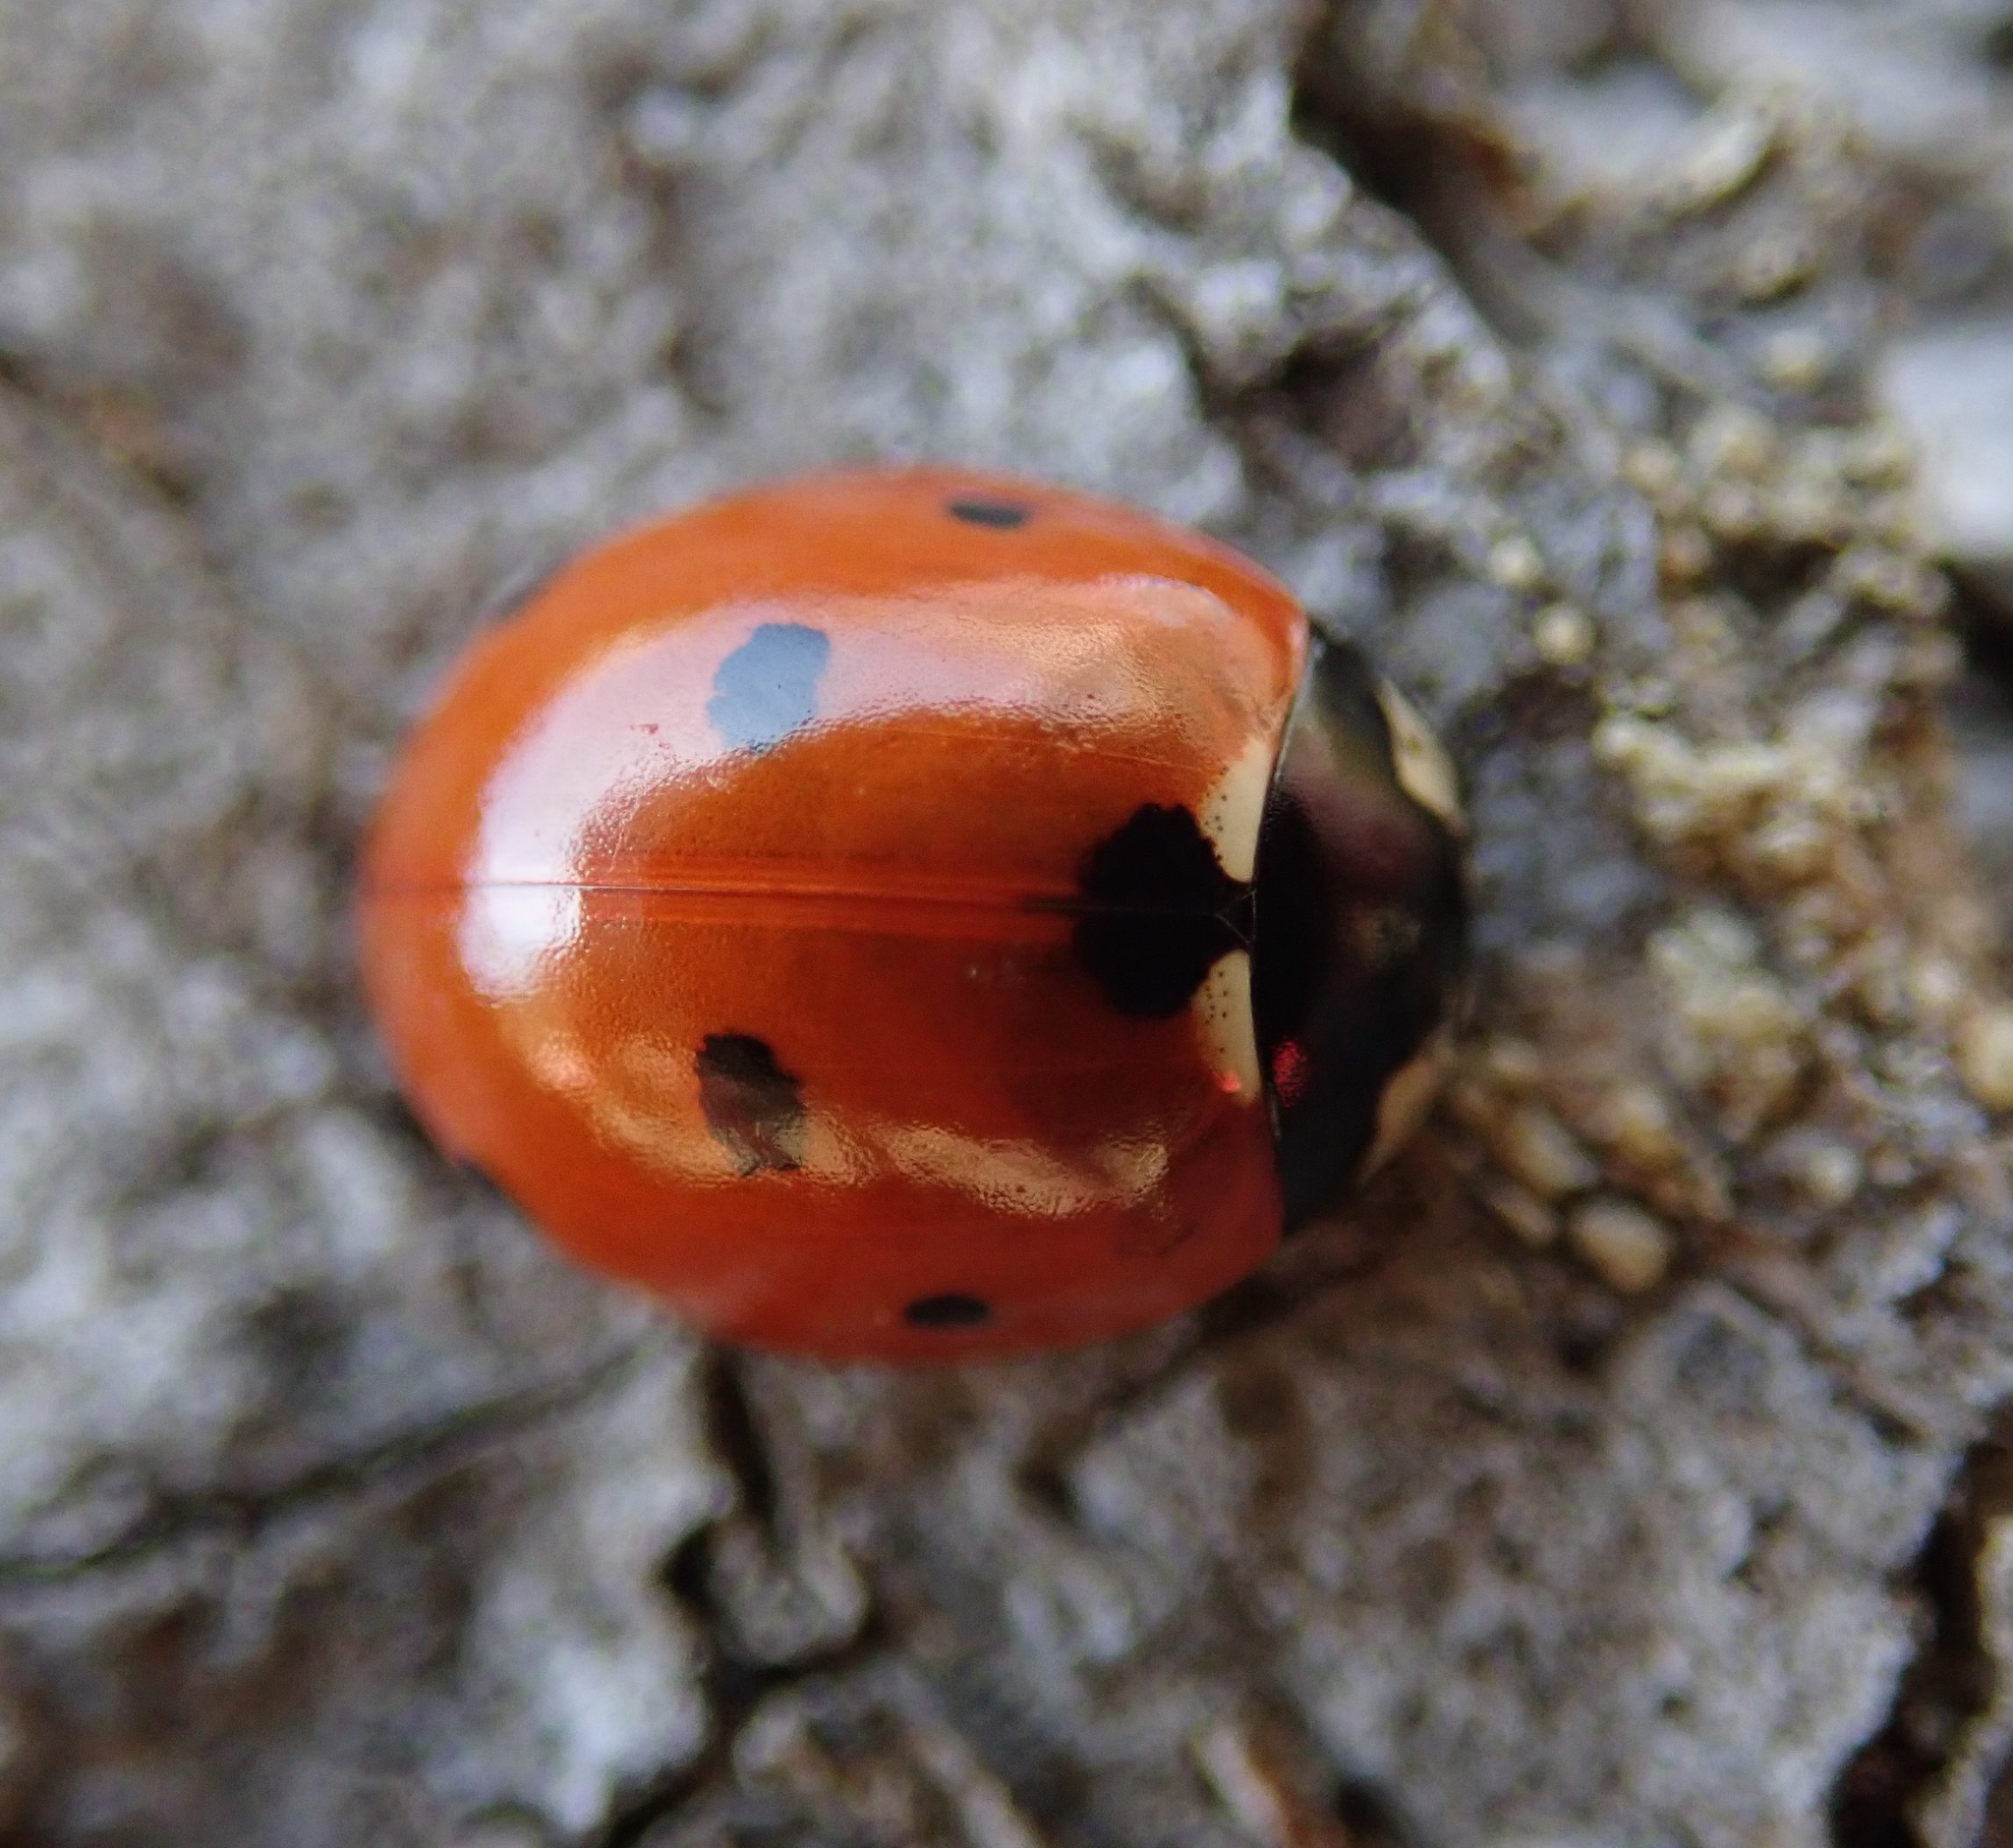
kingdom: Animalia
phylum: Arthropoda
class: Insecta
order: Coleoptera
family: Coccinellidae
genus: Coccinella
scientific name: Coccinella septempunctata
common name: Sevenspotted lady beetle
